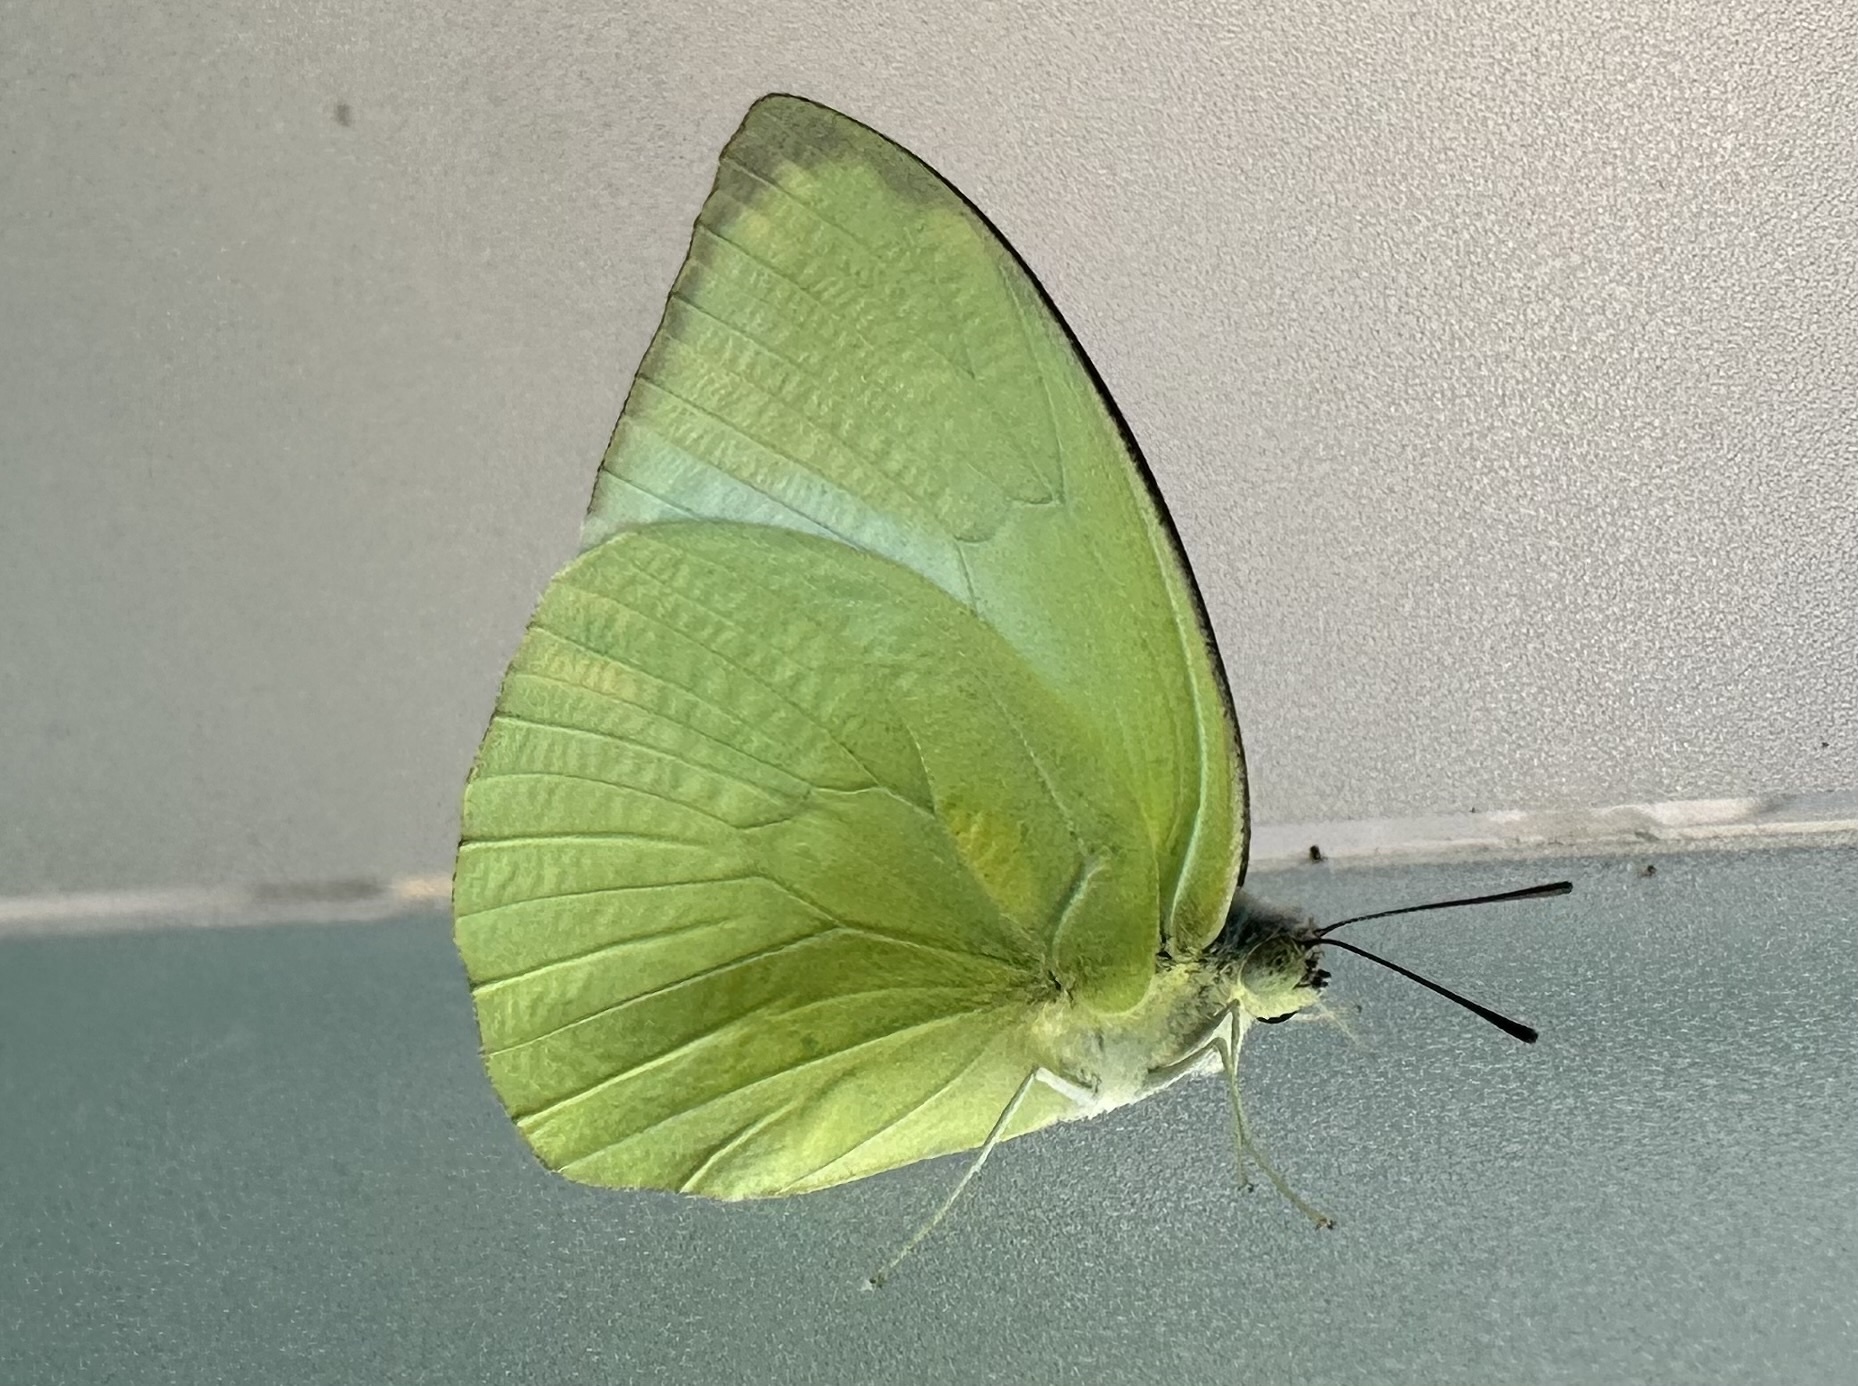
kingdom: Animalia
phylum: Arthropoda
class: Insecta
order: Lepidoptera
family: Pieridae
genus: Catopsilia
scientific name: Catopsilia pomona
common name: Common emigrant
